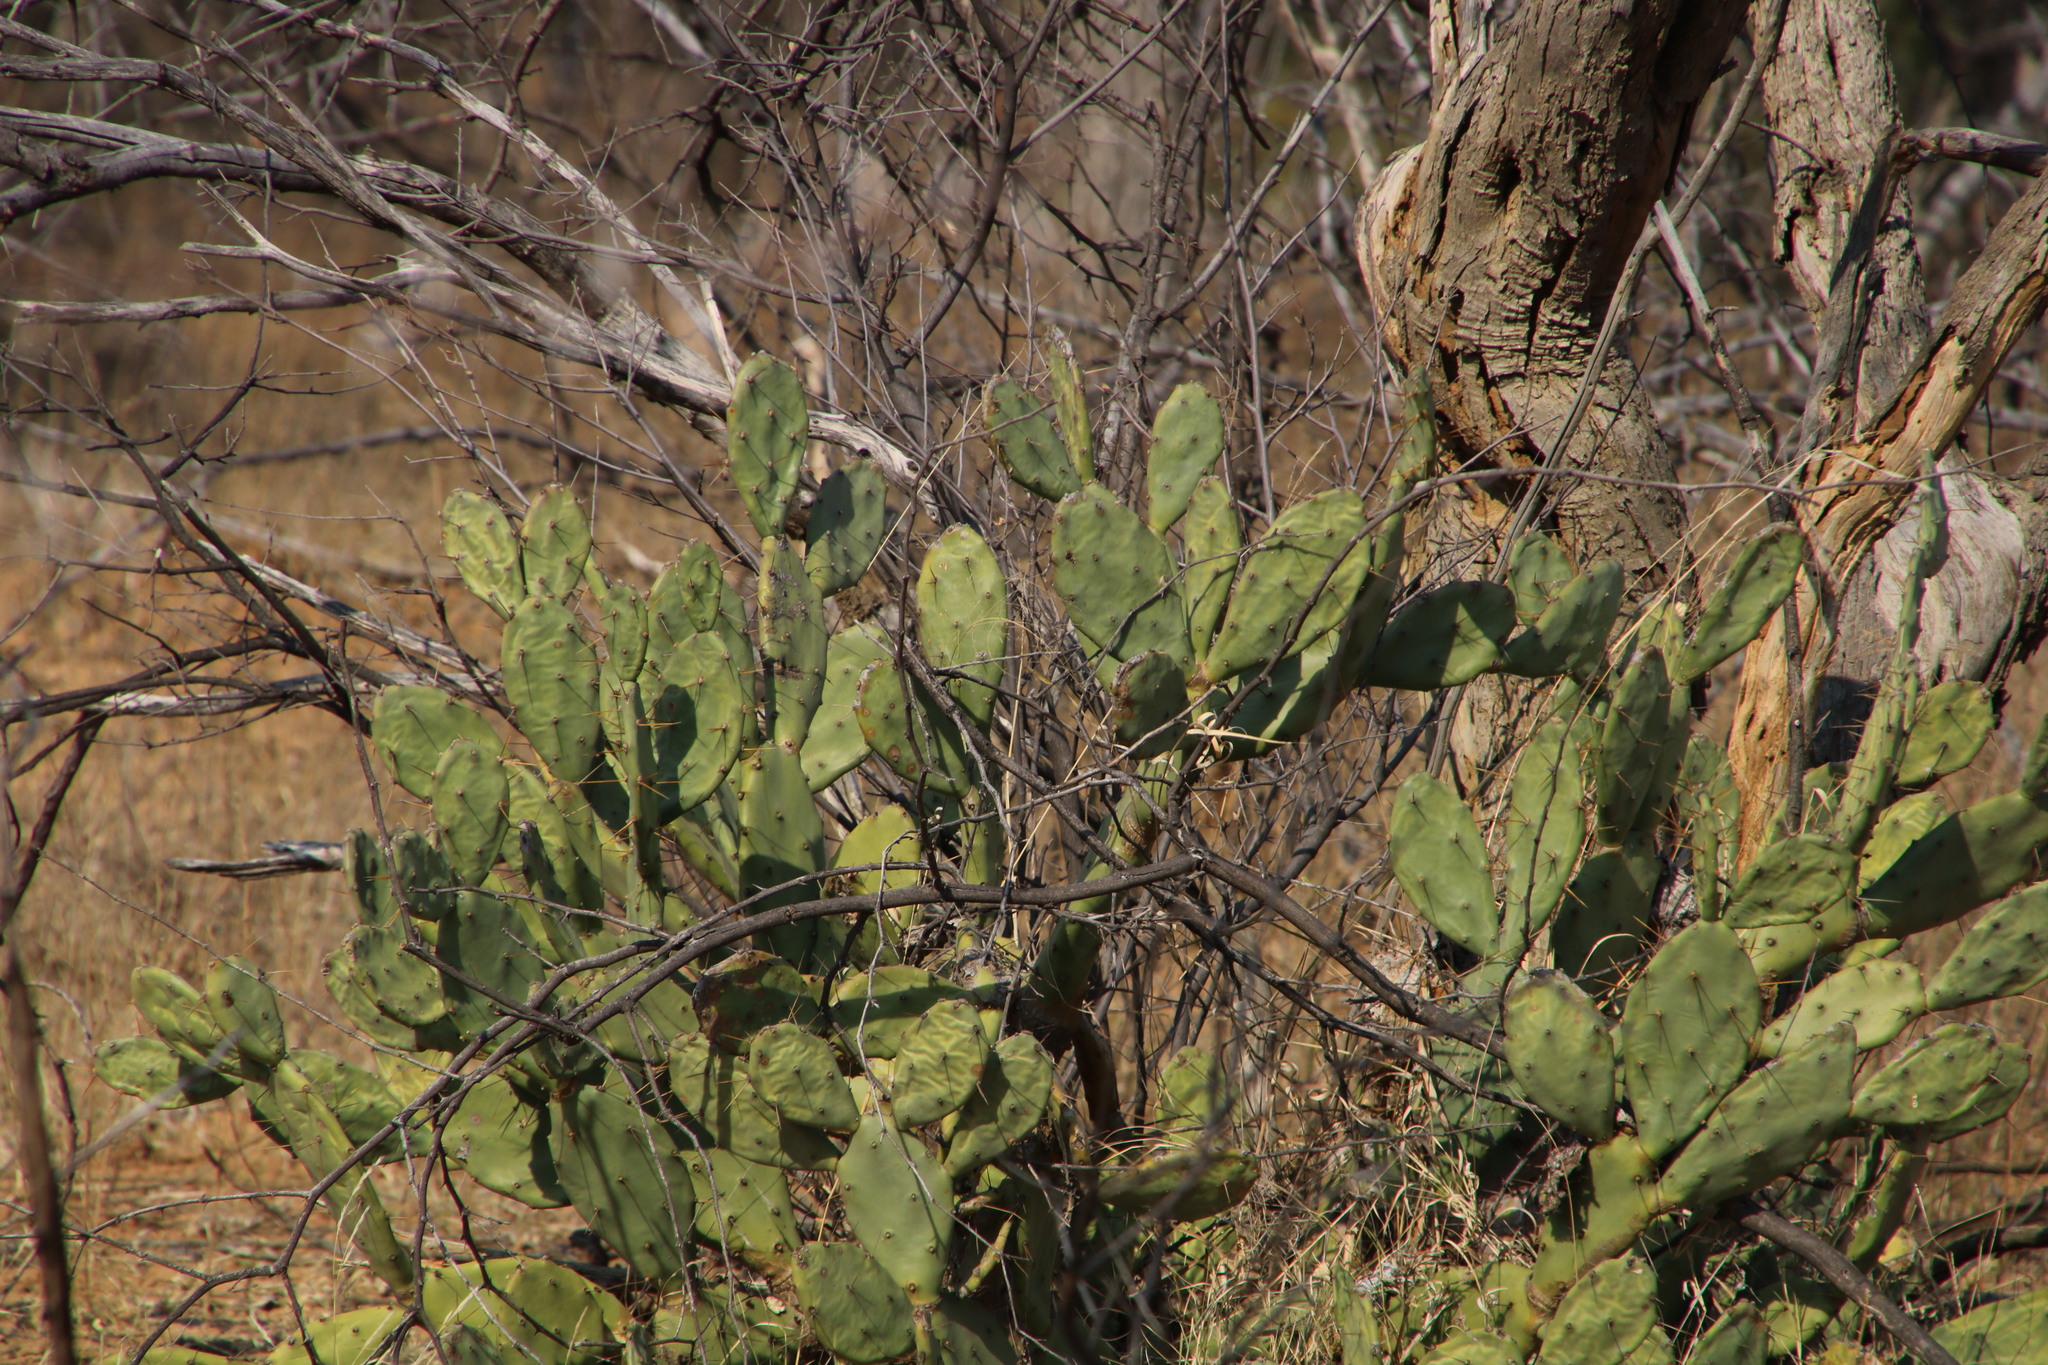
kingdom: Plantae
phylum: Tracheophyta
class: Magnoliopsida
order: Caryophyllales
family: Cactaceae
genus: Opuntia
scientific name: Opuntia stricta
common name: Erect pricklypear
